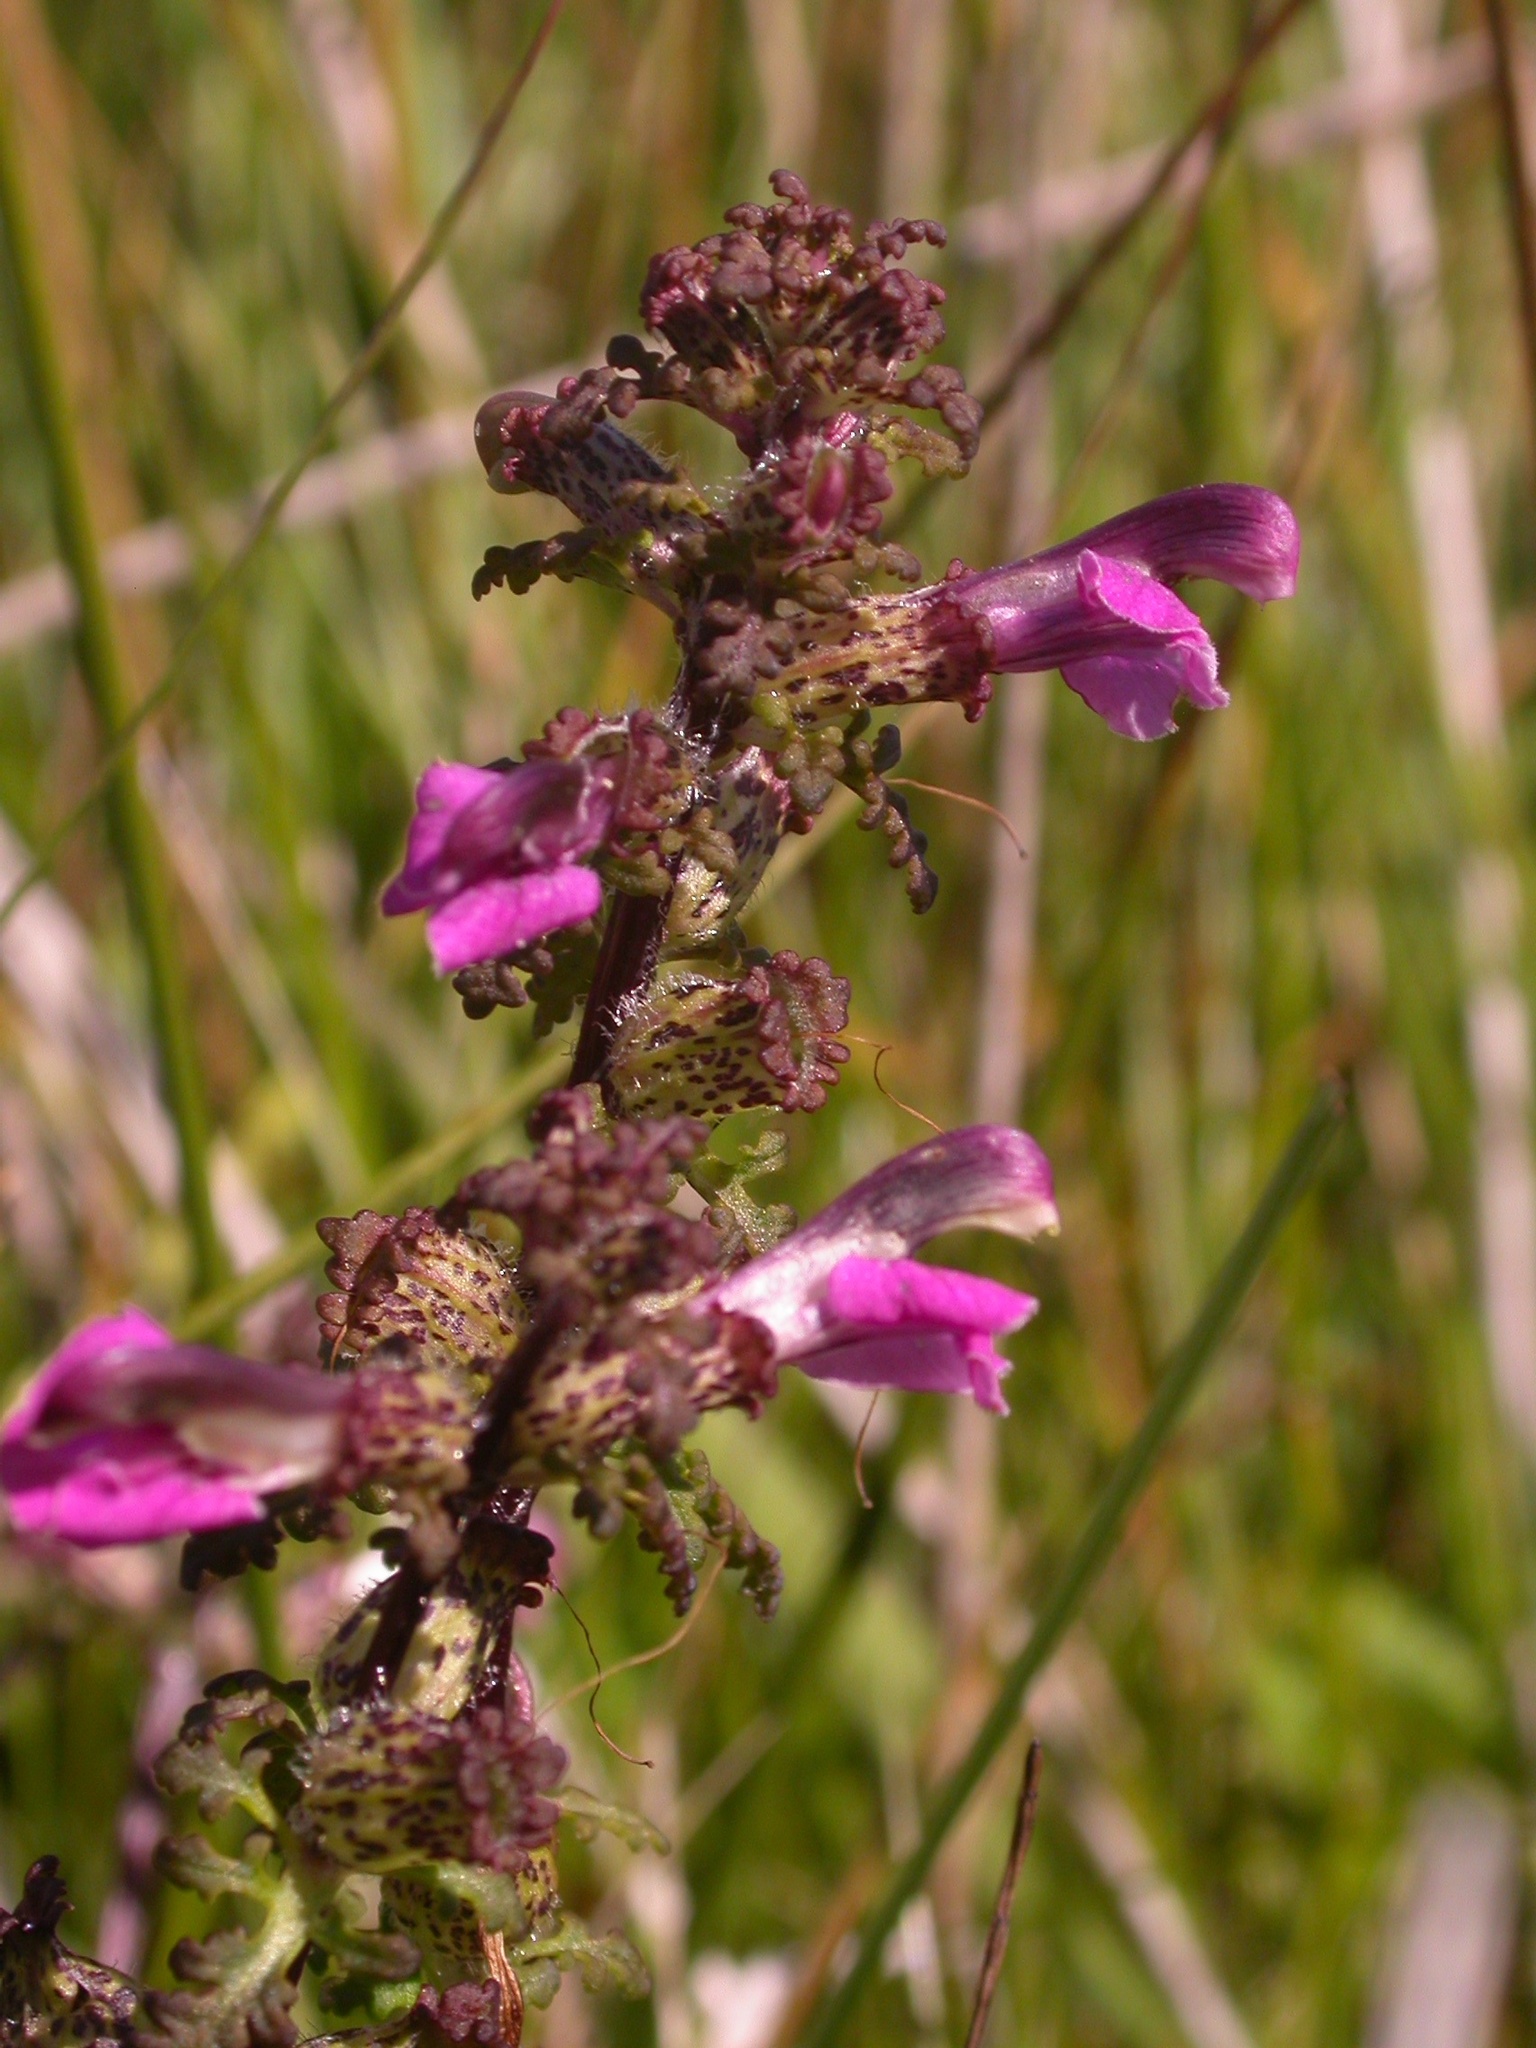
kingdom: Plantae
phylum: Tracheophyta
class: Magnoliopsida
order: Lamiales
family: Orobanchaceae
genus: Pedicularis
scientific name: Pedicularis palustris
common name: Marsh lousewort
